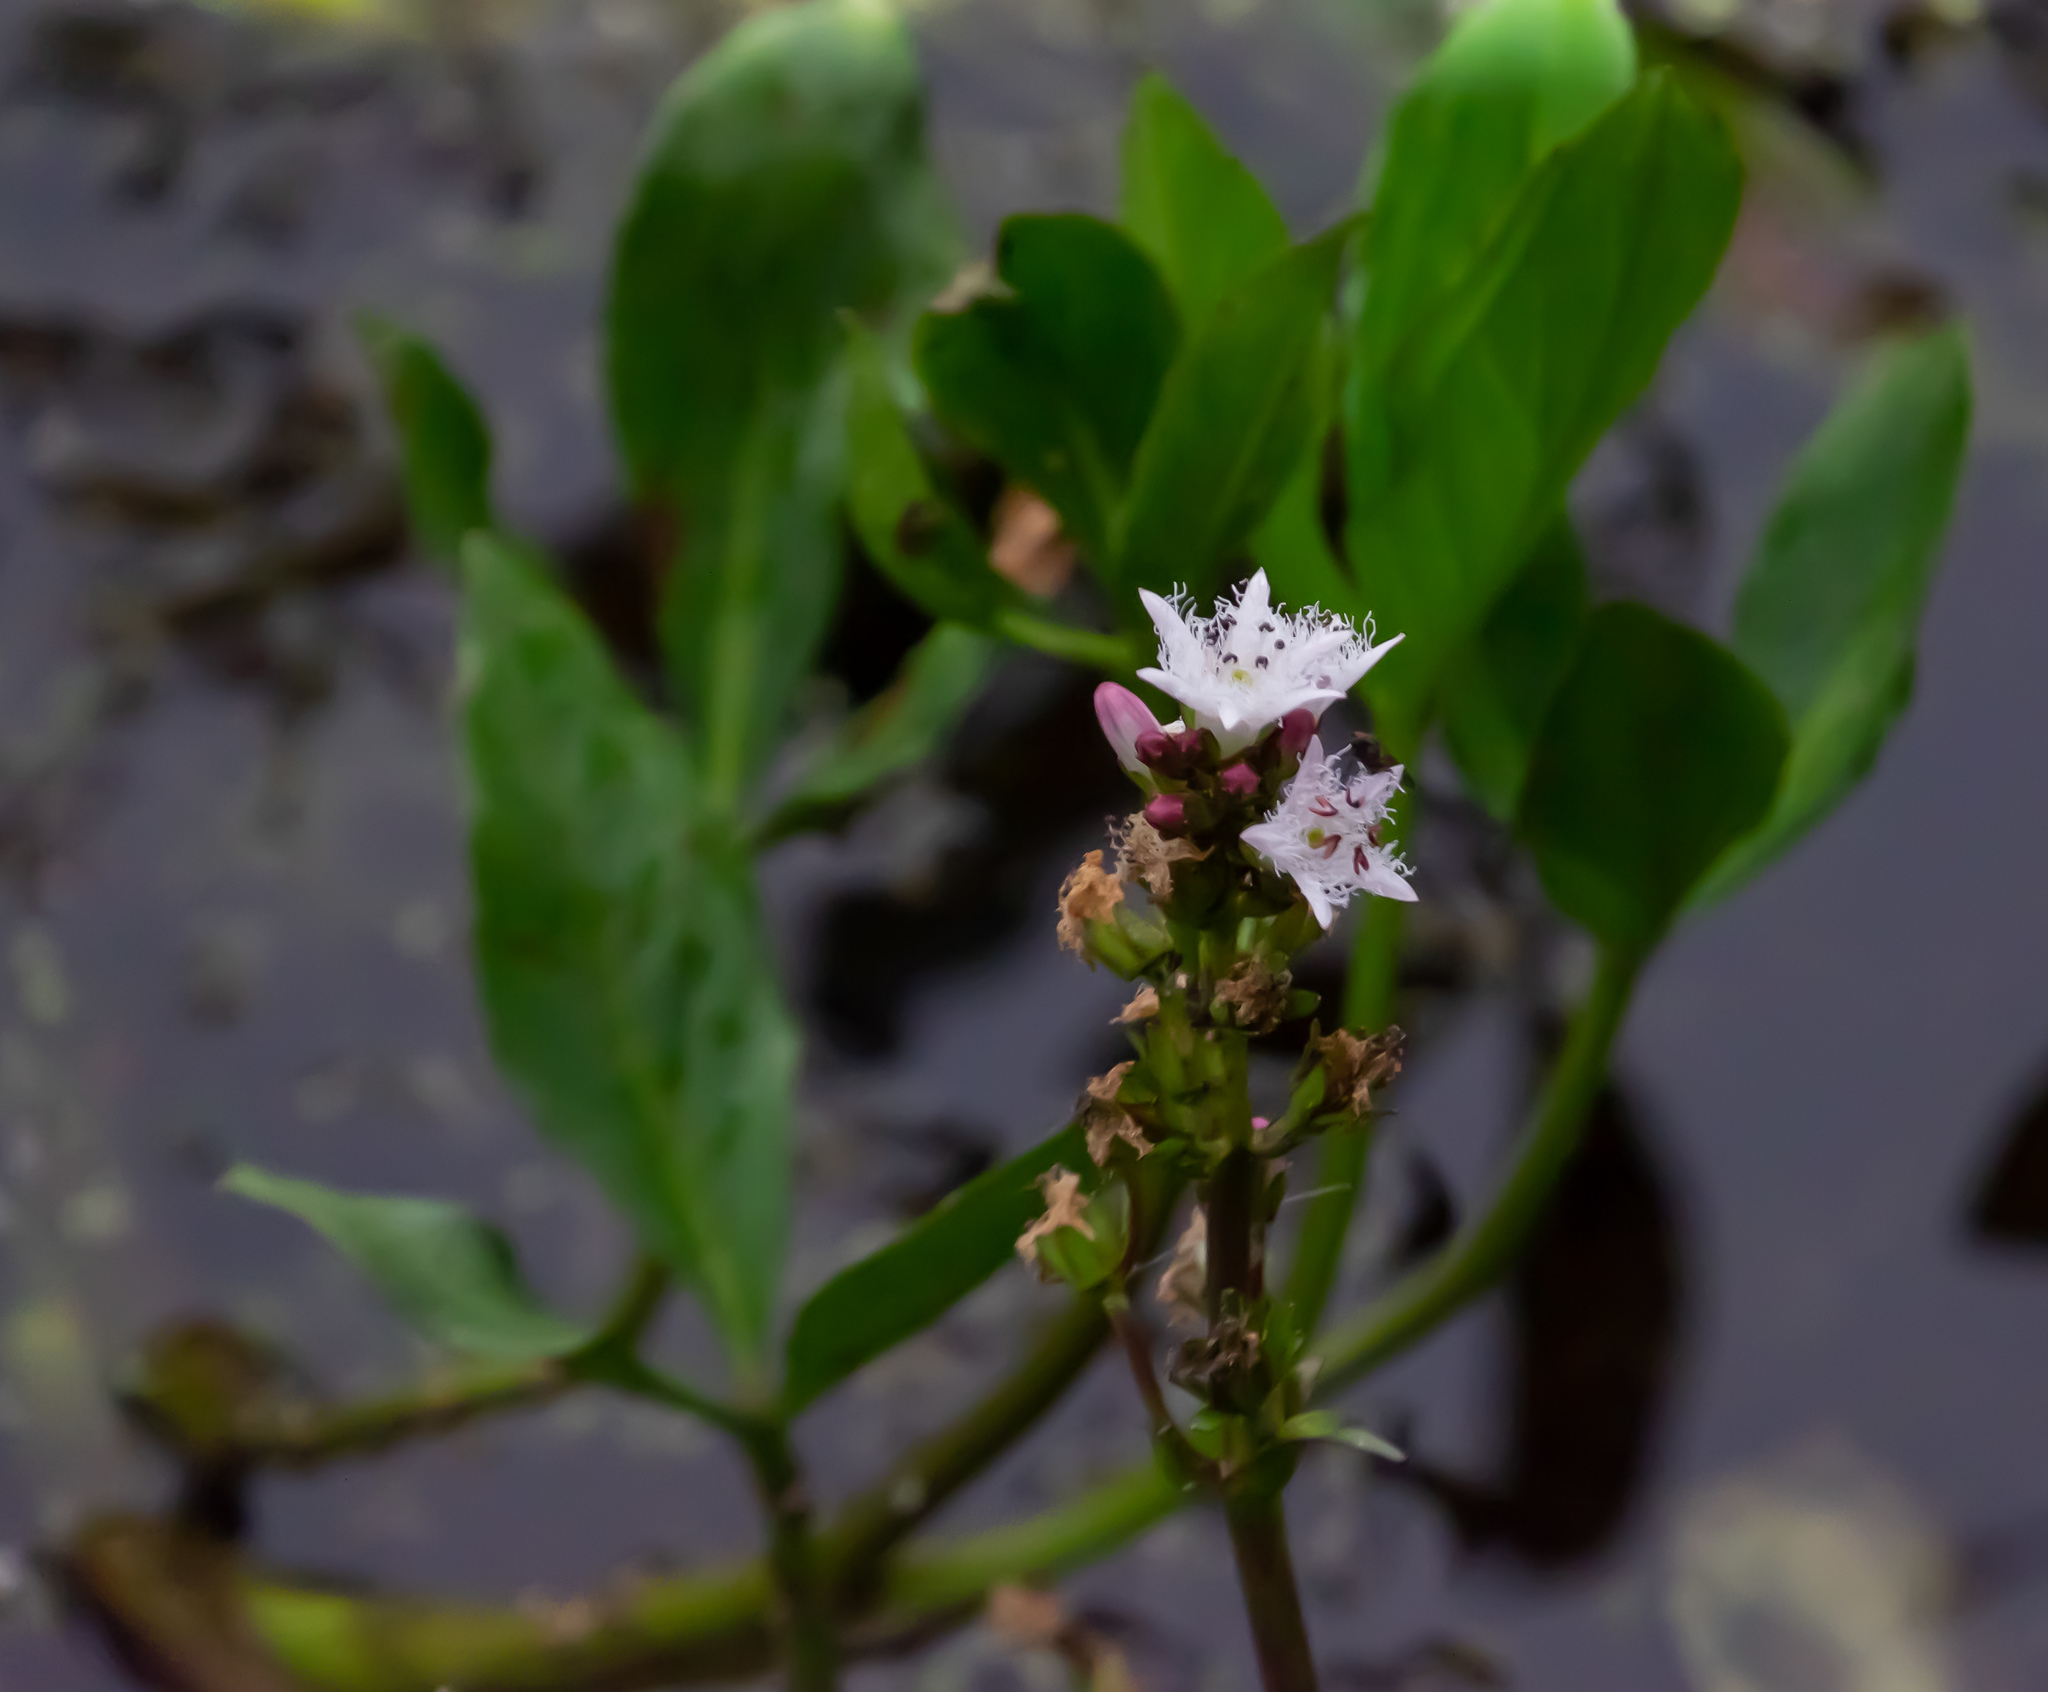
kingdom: Plantae
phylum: Tracheophyta
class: Magnoliopsida
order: Asterales
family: Menyanthaceae
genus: Menyanthes
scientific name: Menyanthes trifoliata
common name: Bogbean
